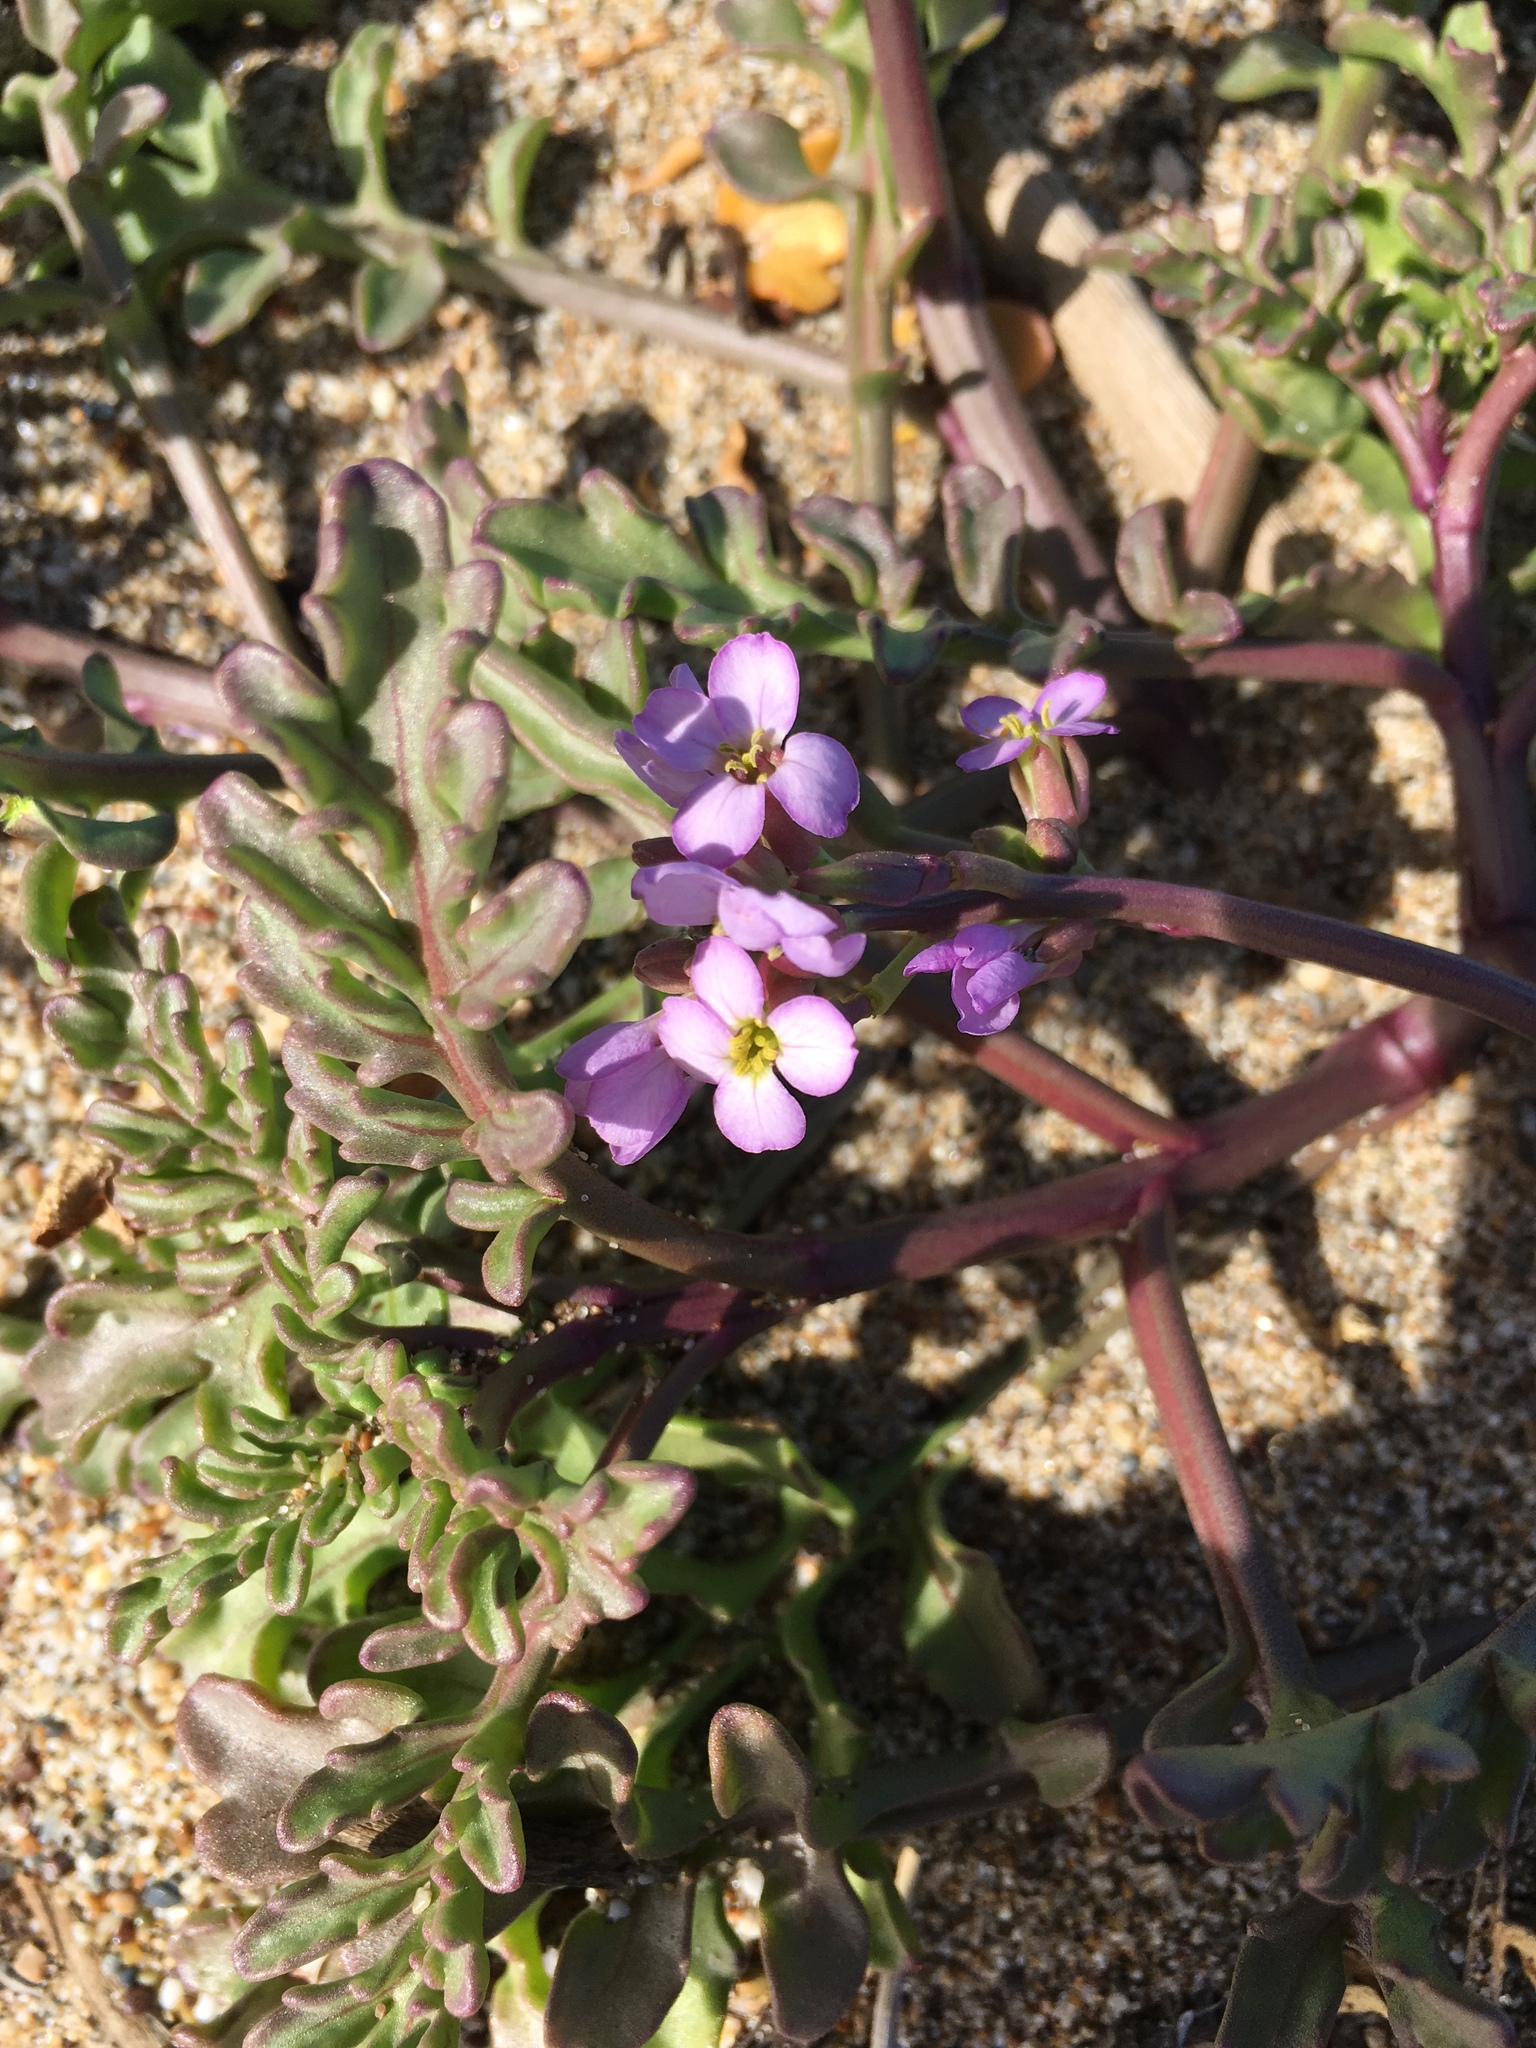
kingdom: Plantae
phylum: Tracheophyta
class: Magnoliopsida
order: Brassicales
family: Brassicaceae
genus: Cakile
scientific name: Cakile maritima
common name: Sea rocket
